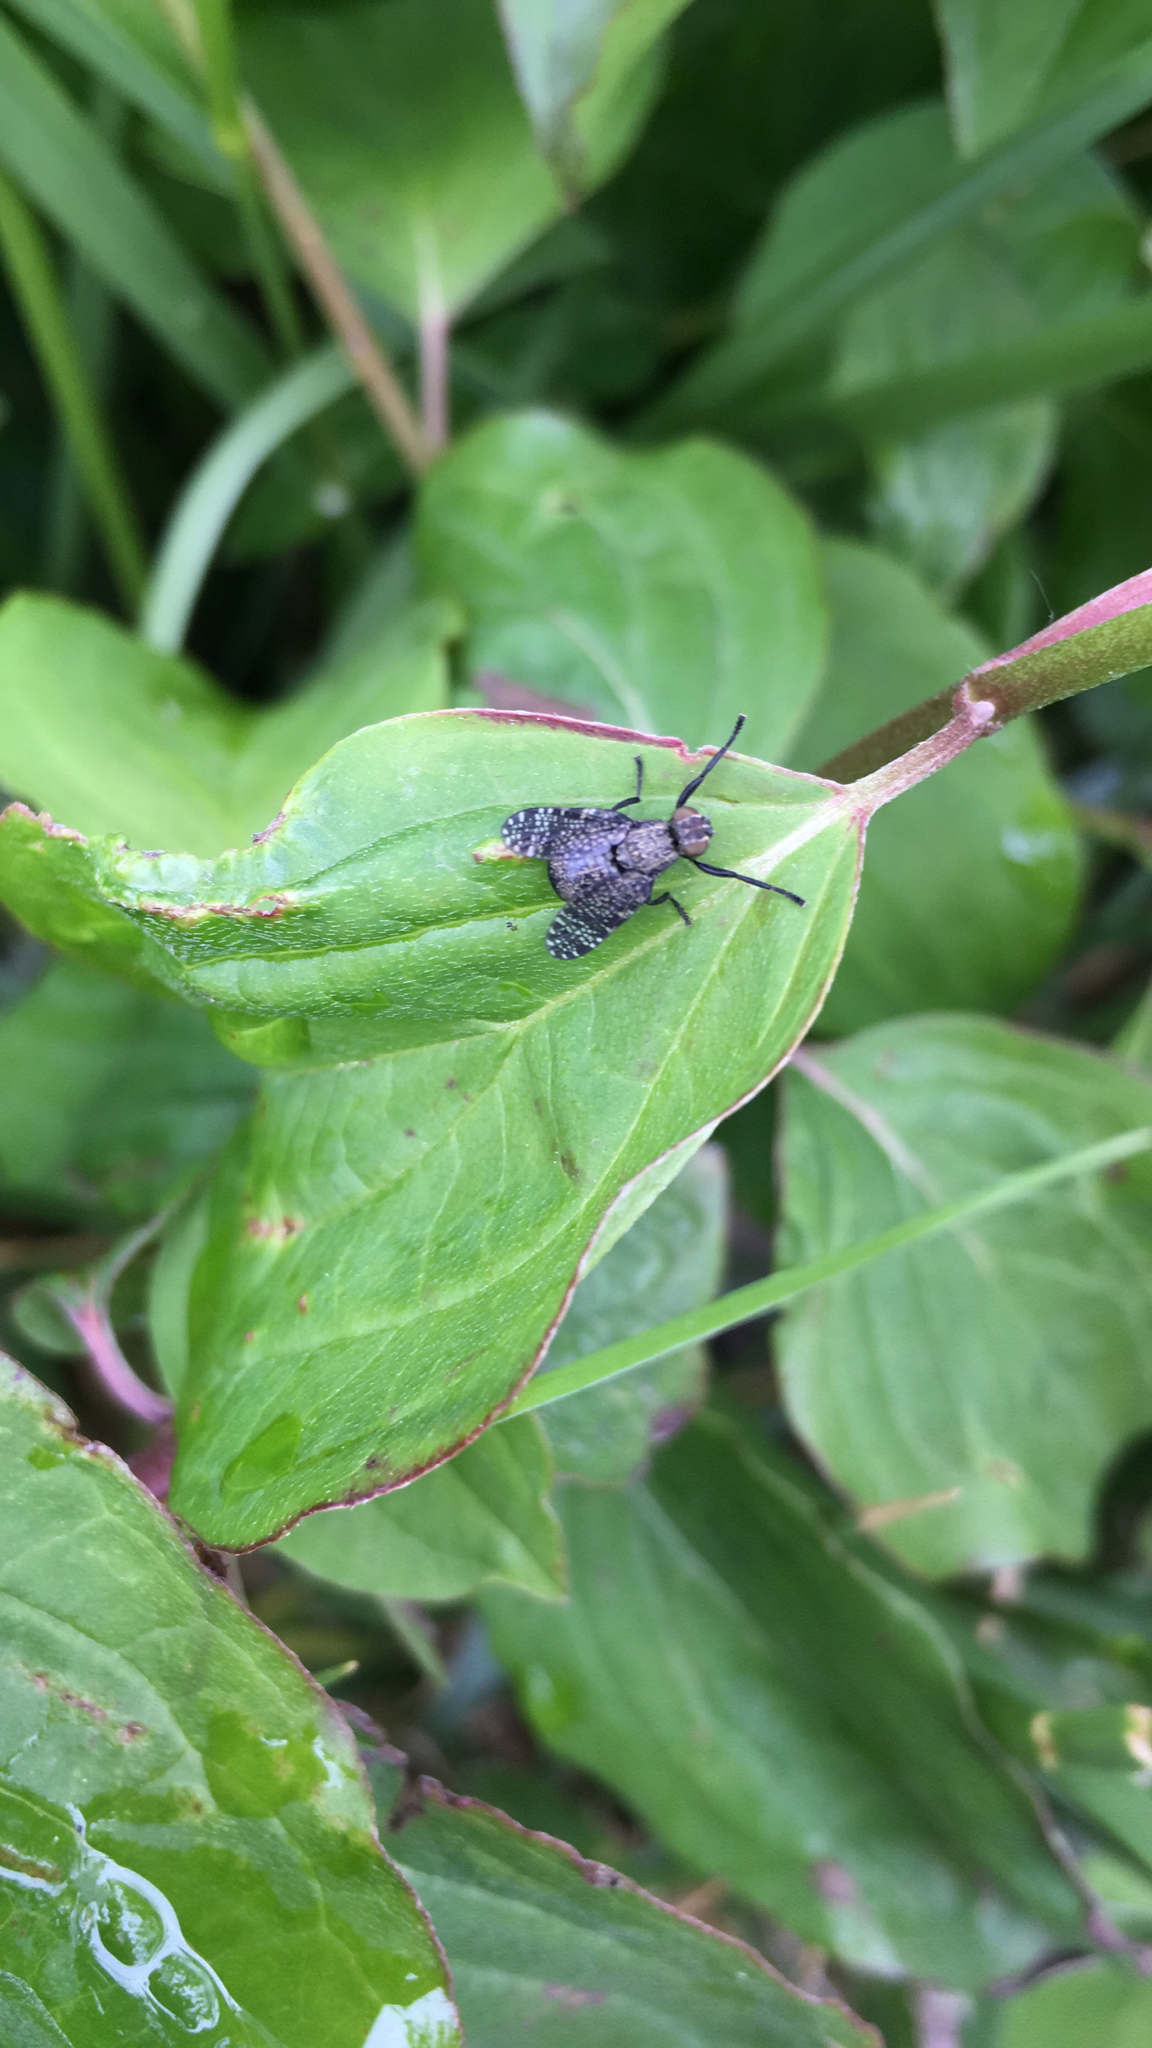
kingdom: Animalia
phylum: Arthropoda
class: Insecta
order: Diptera
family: Platystomatidae
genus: Platystoma
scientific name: Platystoma seminationis
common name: Fly
